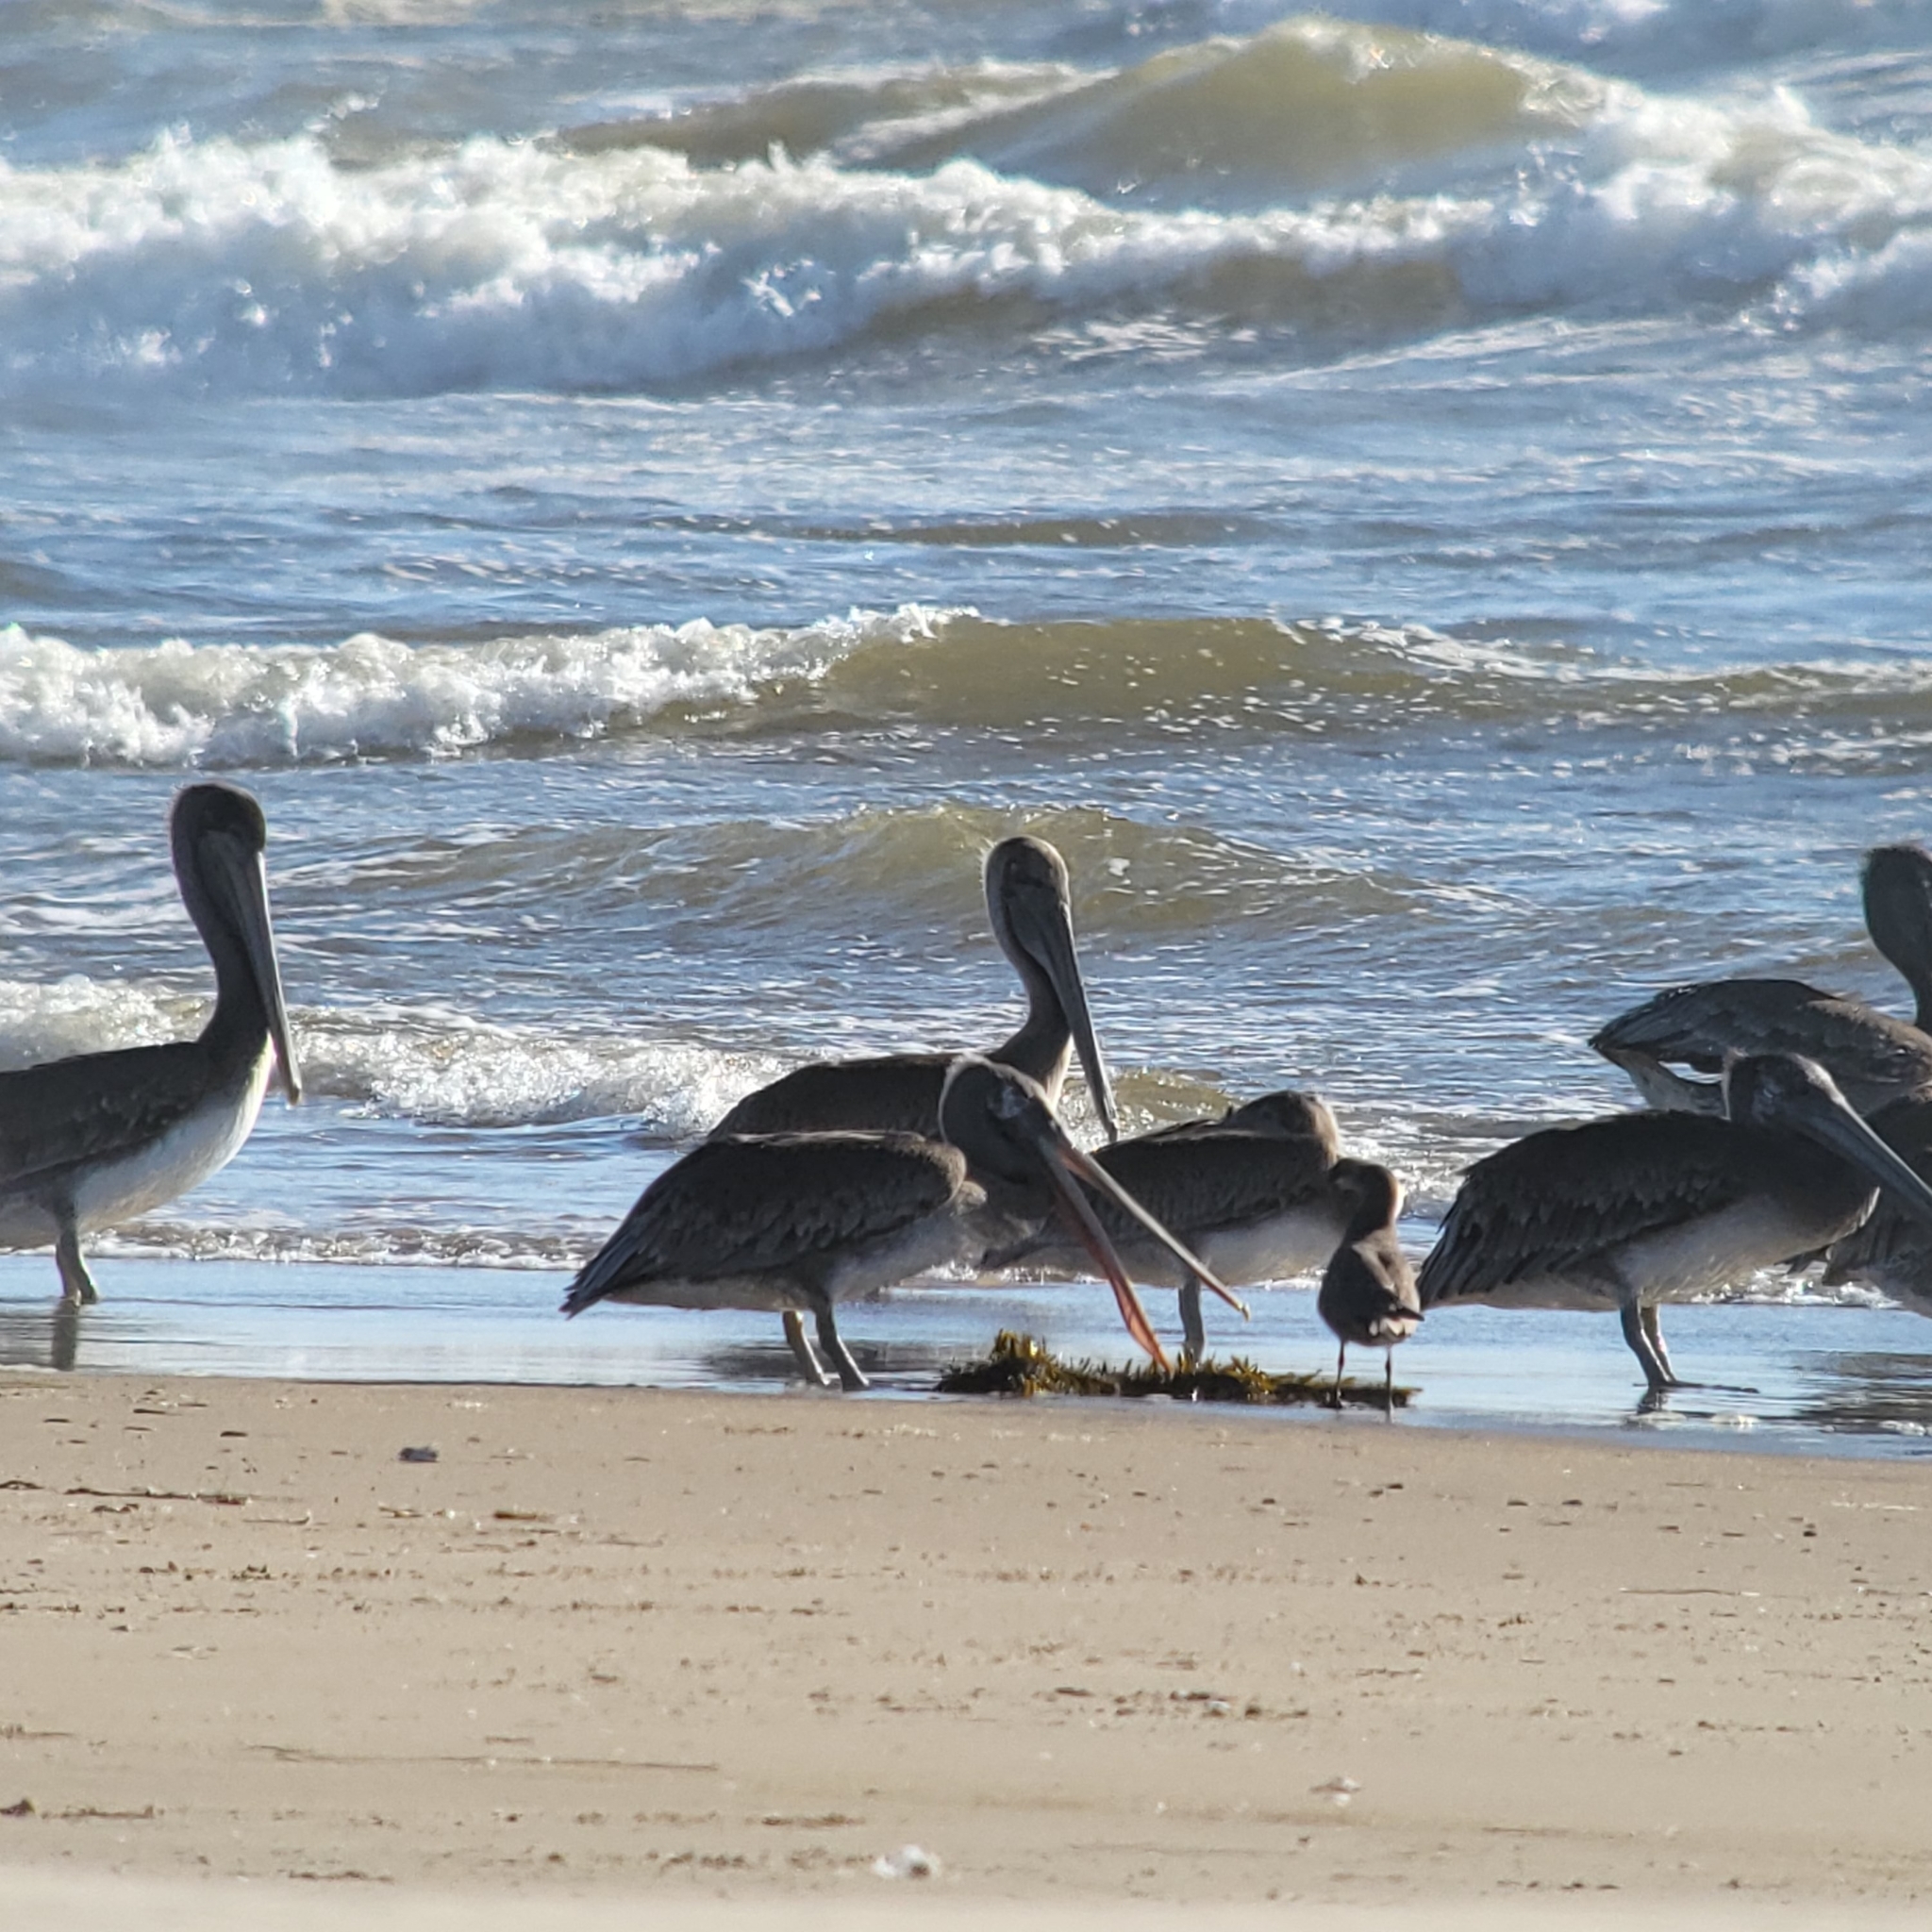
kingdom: Animalia
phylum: Chordata
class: Aves
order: Pelecaniformes
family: Pelecanidae
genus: Pelecanus
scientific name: Pelecanus occidentalis
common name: Brown pelican
